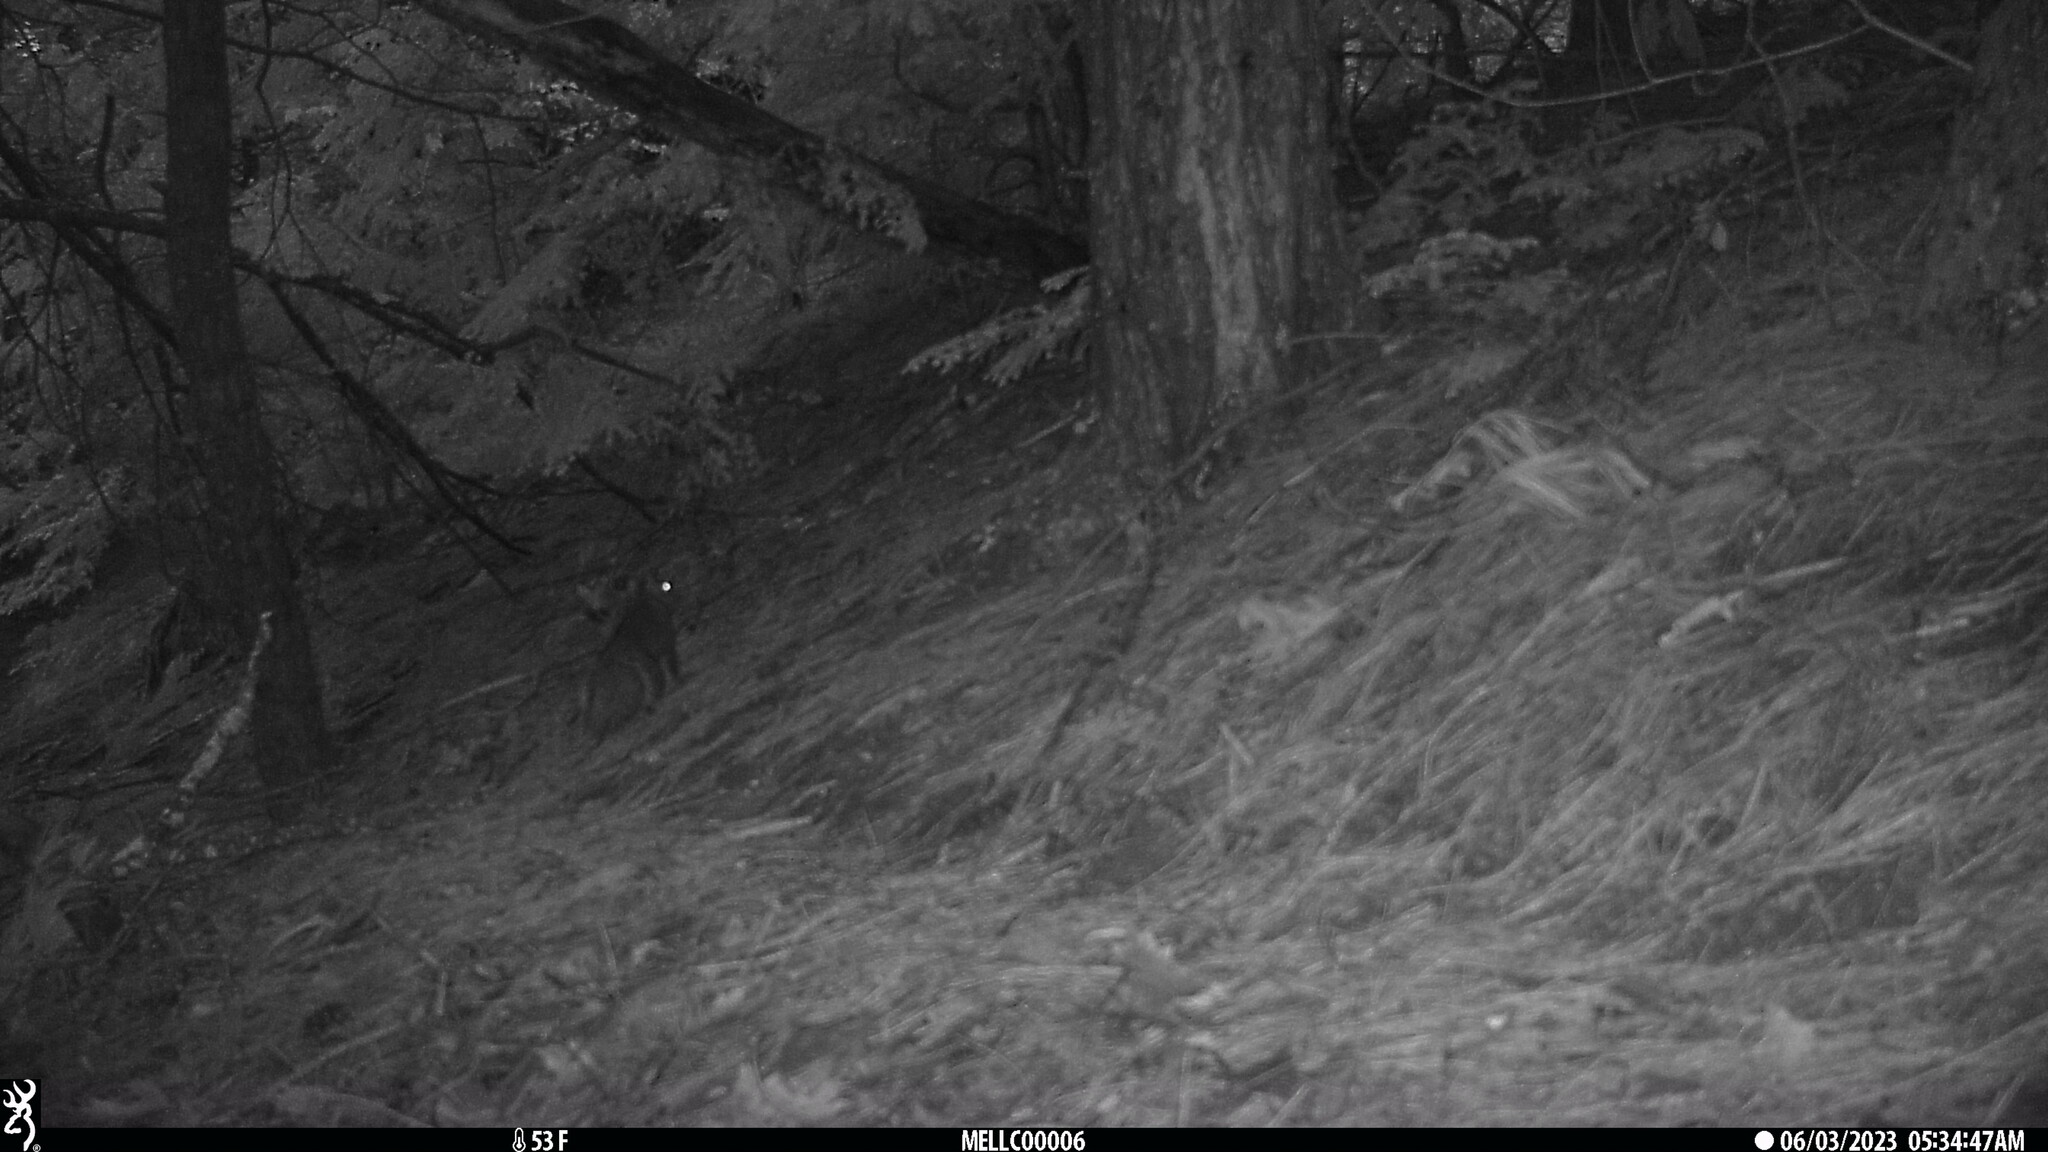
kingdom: Animalia
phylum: Chordata
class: Mammalia
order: Rodentia
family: Sciuridae
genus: Sciurus
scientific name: Sciurus carolinensis
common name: Eastern gray squirrel
